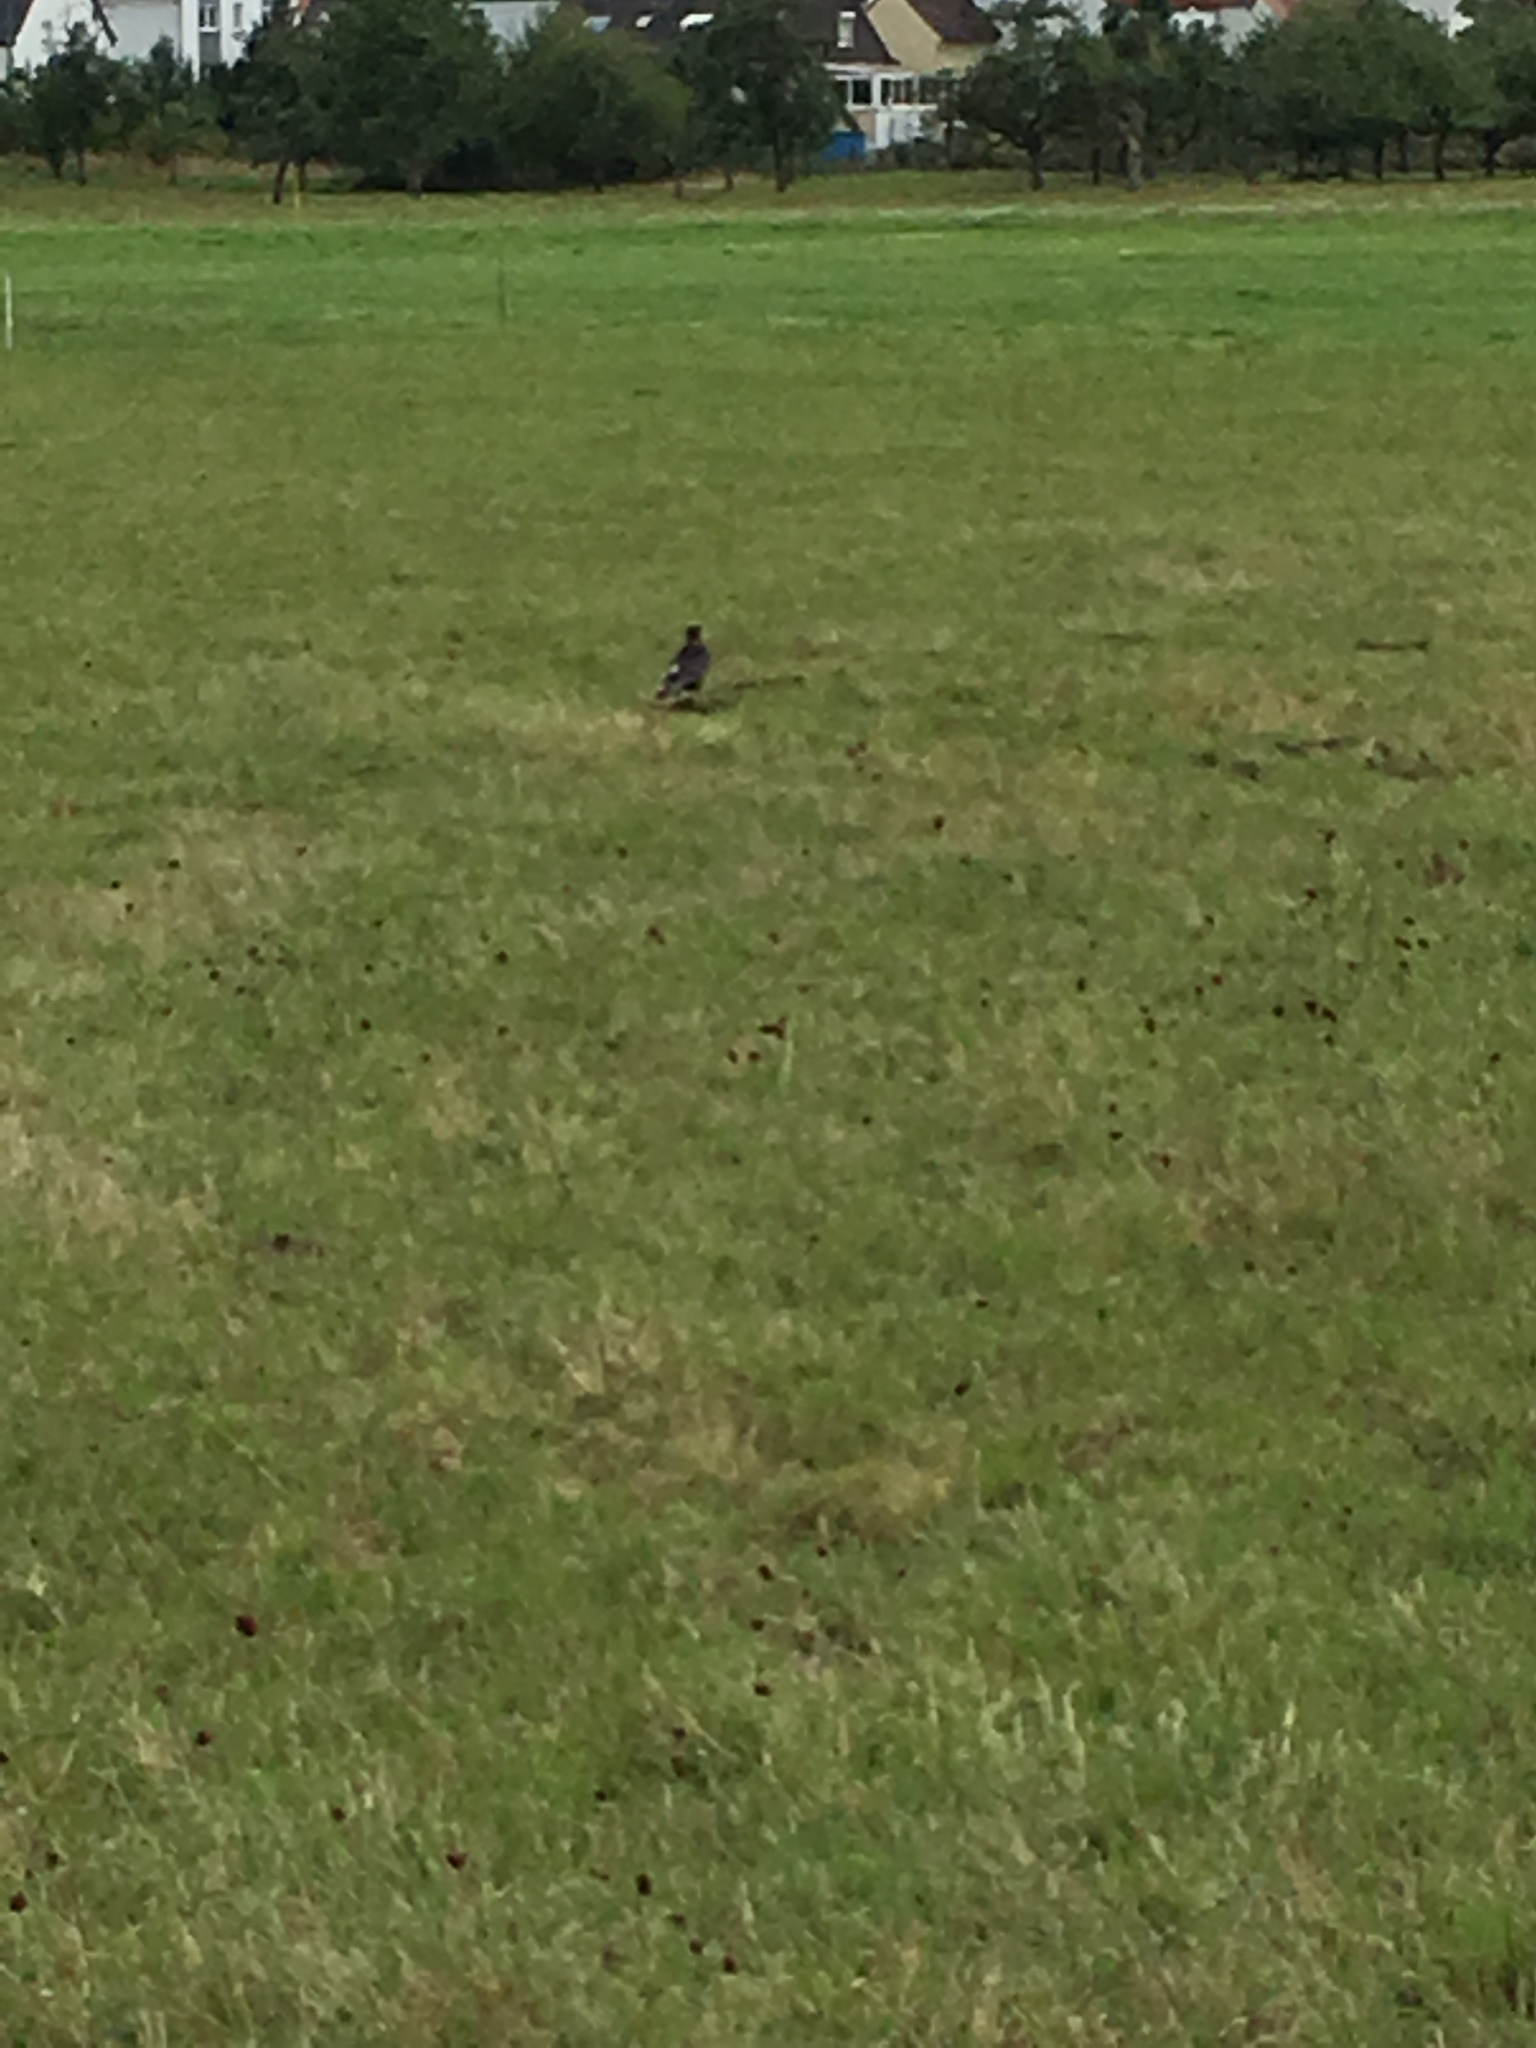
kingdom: Animalia
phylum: Chordata
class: Aves
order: Passeriformes
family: Corvidae
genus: Corvus
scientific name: Corvus corone
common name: Carrion crow
